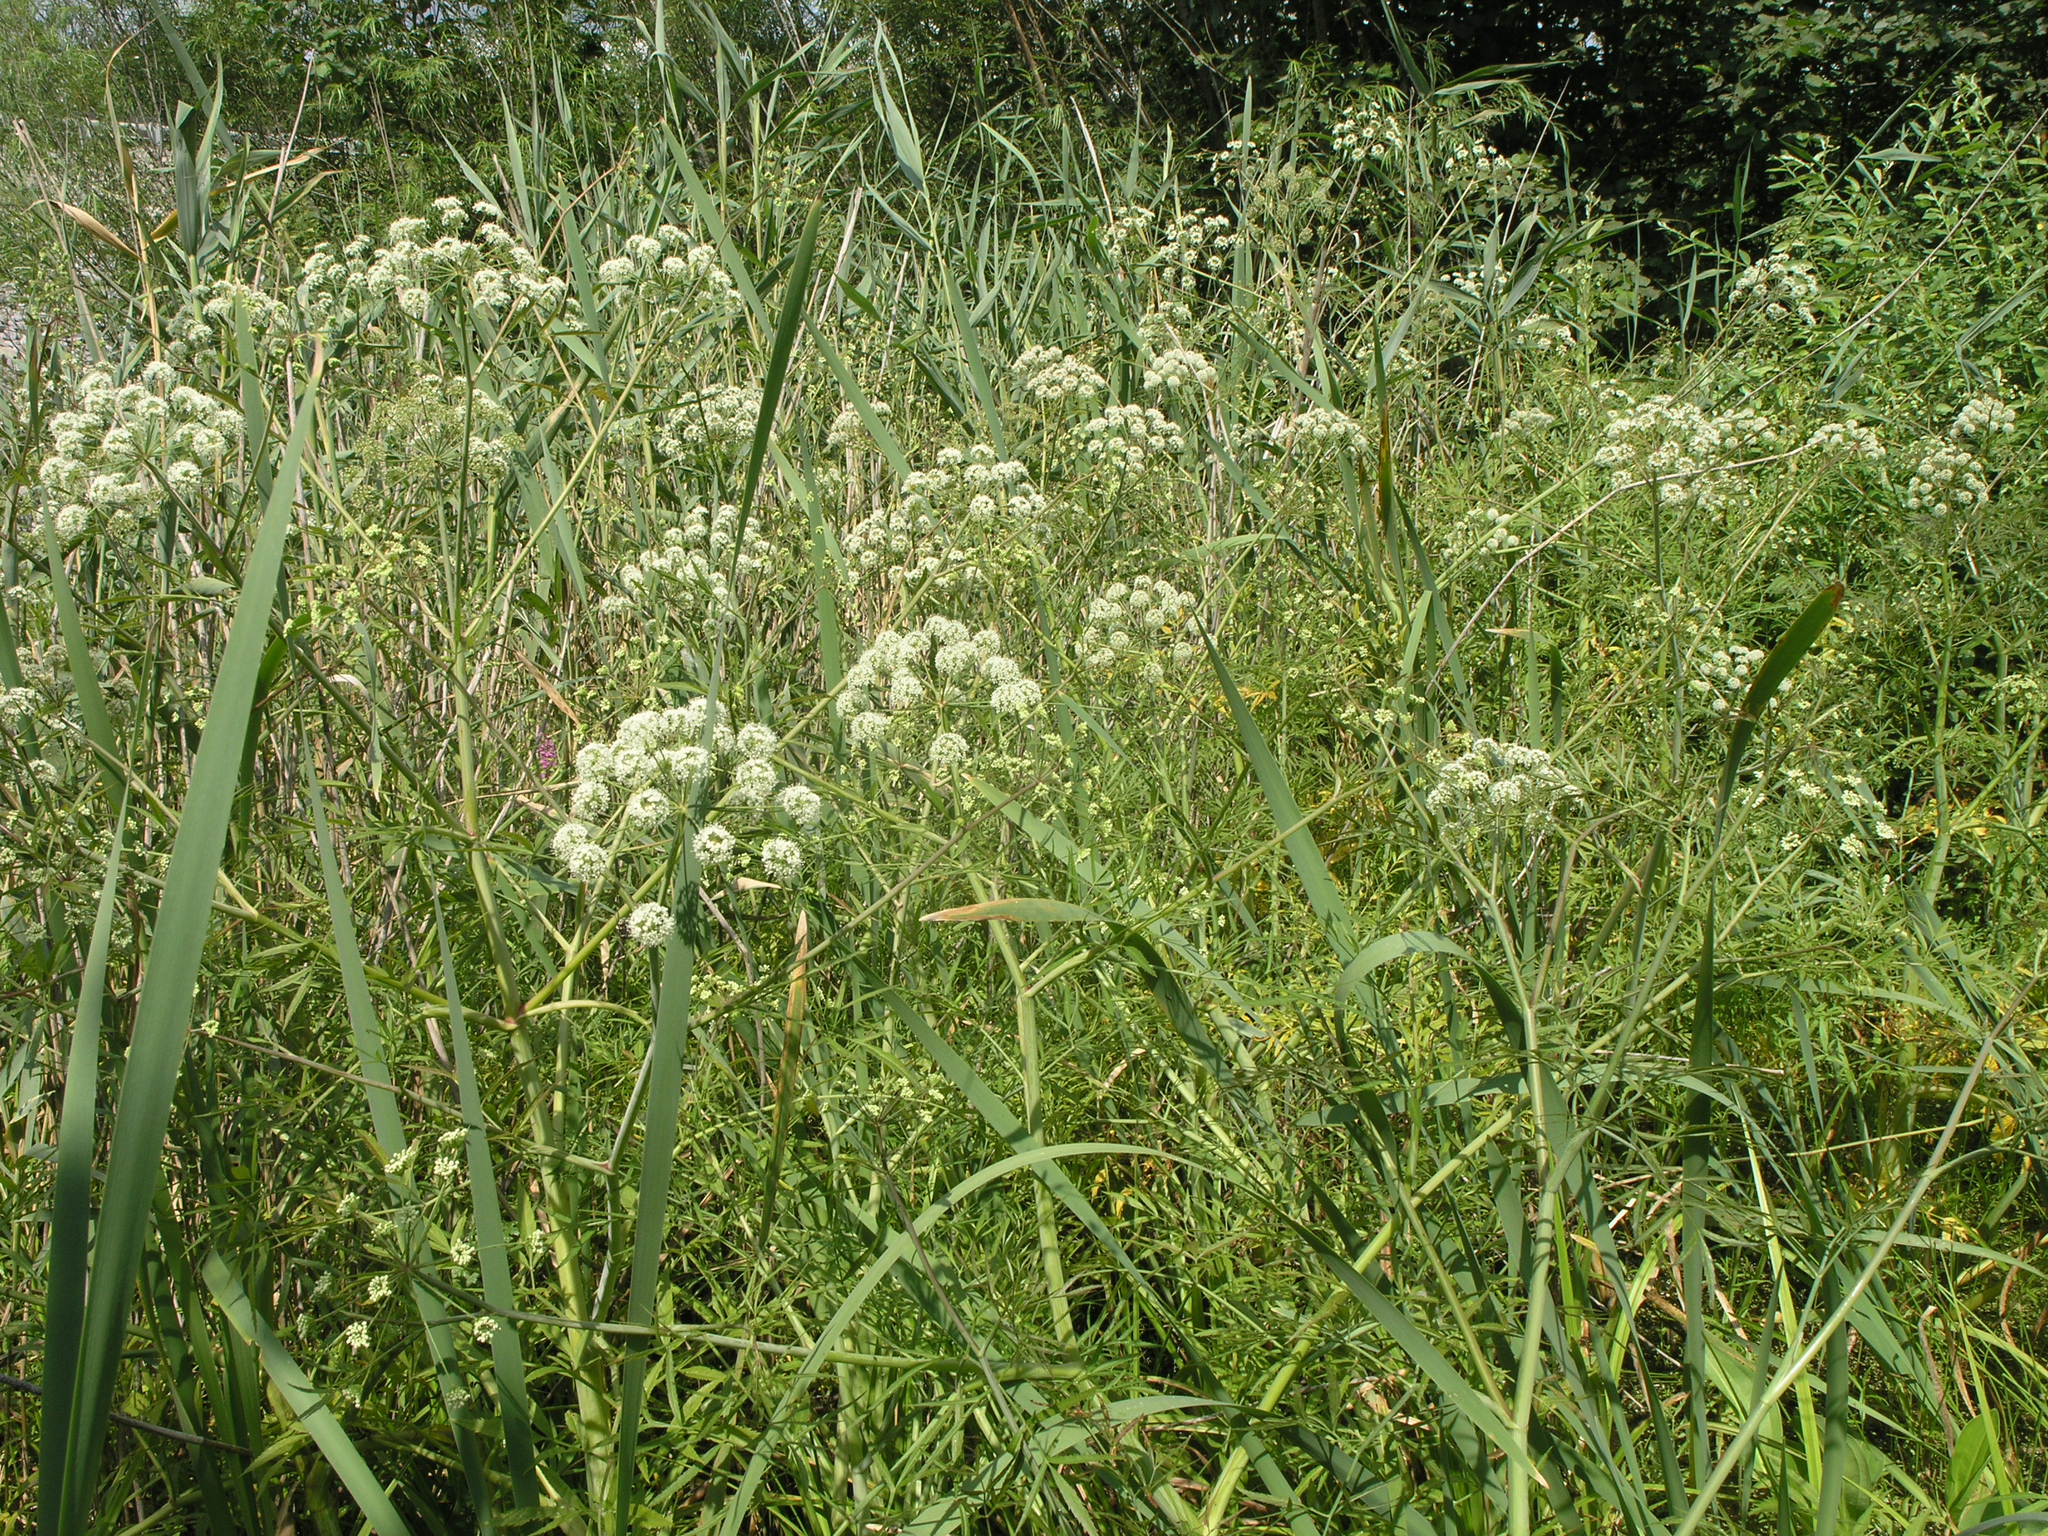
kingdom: Plantae
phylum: Tracheophyta
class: Magnoliopsida
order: Apiales
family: Apiaceae
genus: Cicuta
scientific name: Cicuta virosa
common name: Cowbane
